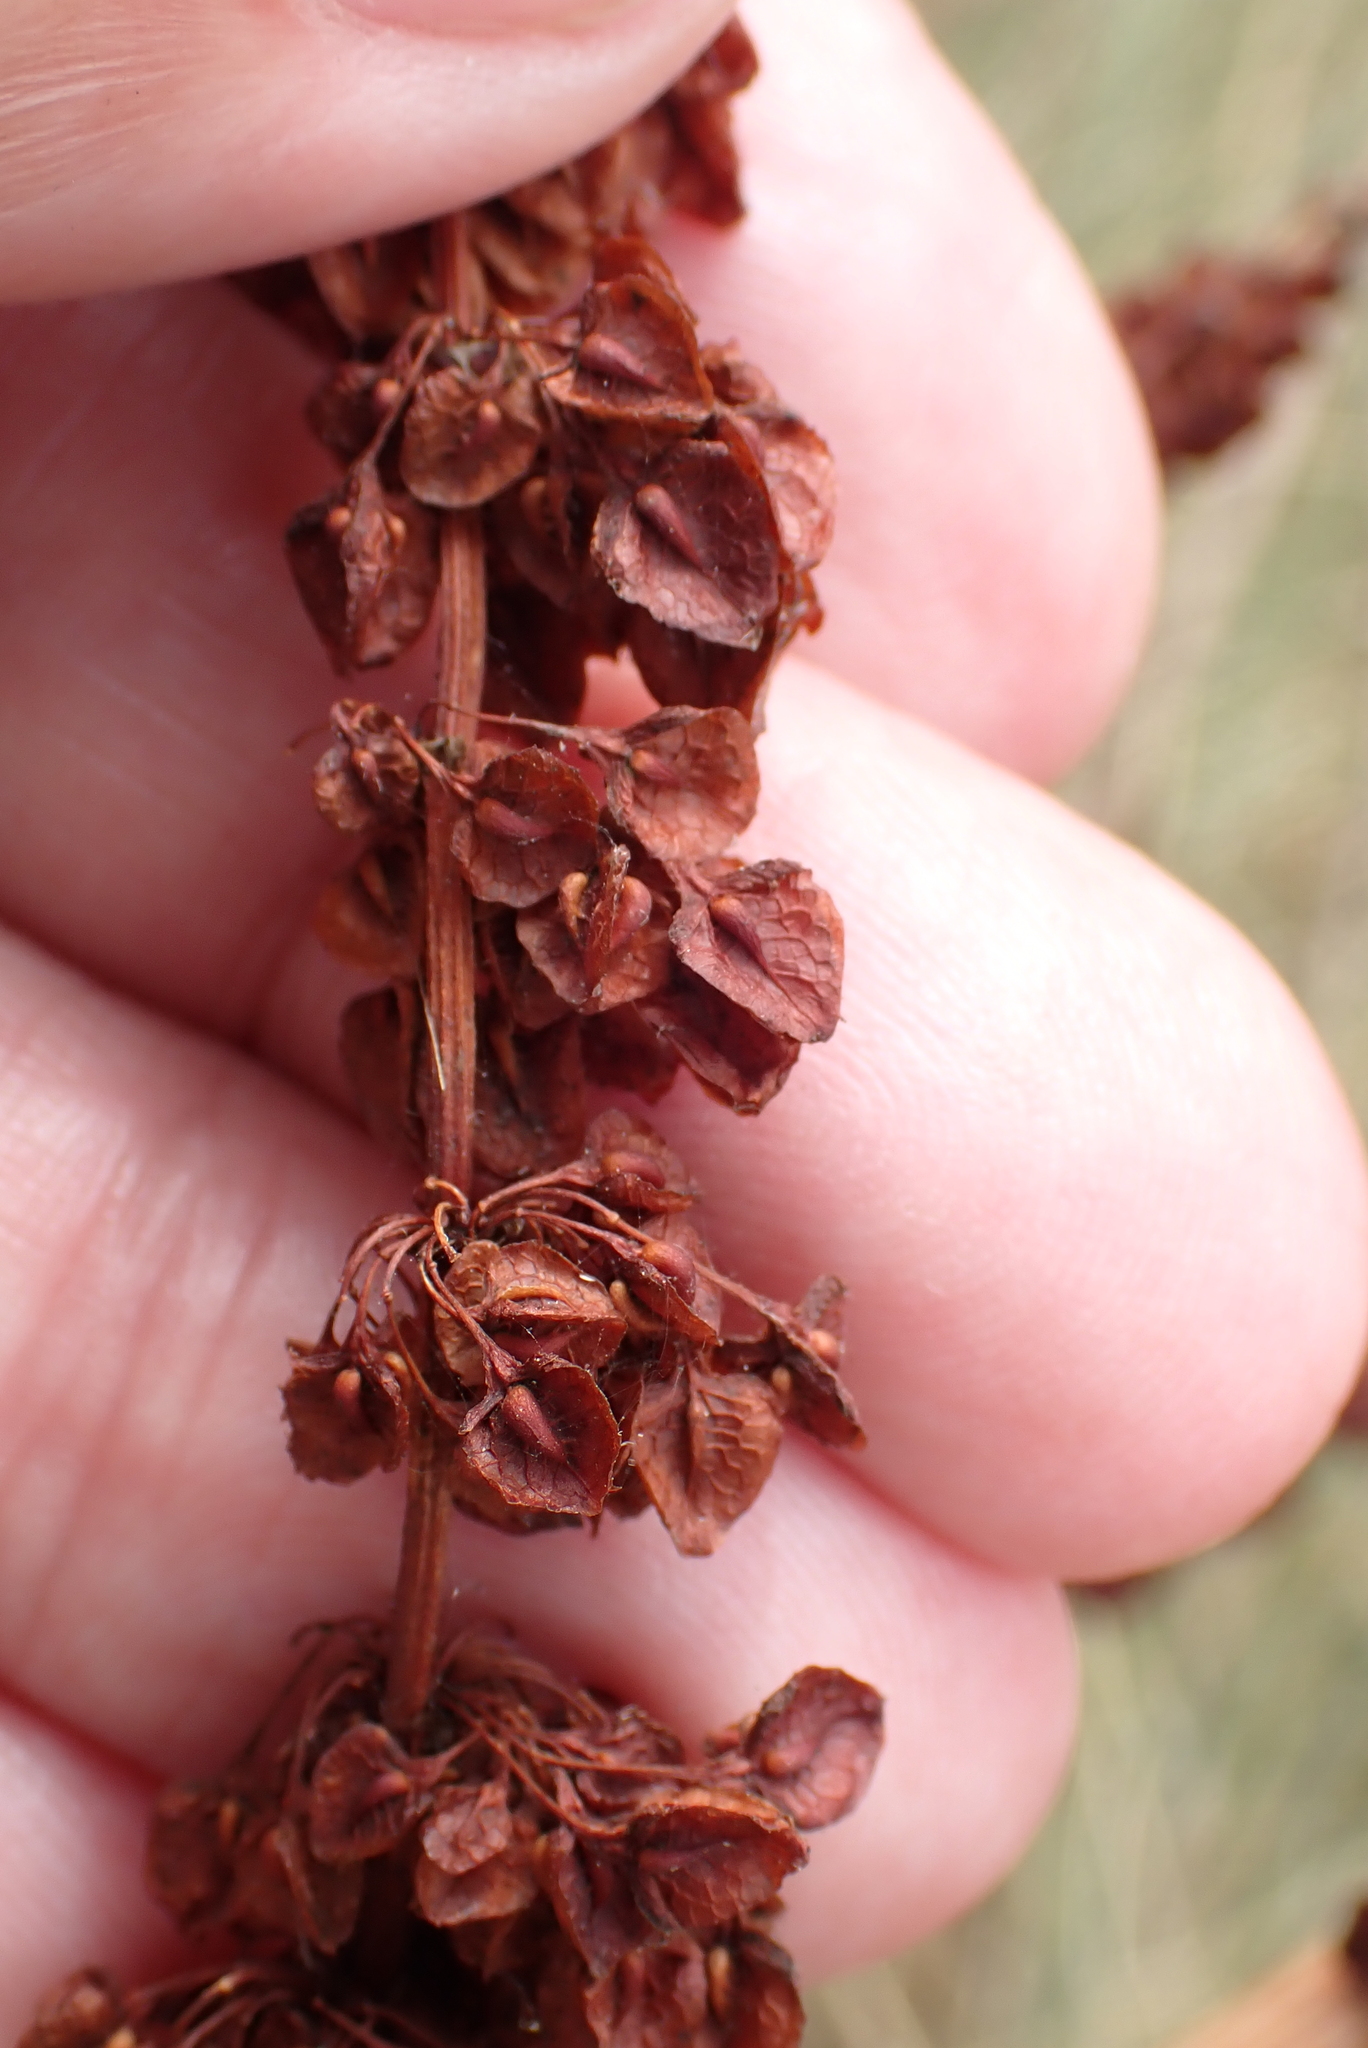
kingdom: Plantae
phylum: Tracheophyta
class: Magnoliopsida
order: Caryophyllales
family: Polygonaceae
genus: Rumex
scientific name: Rumex crispus
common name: Curled dock
